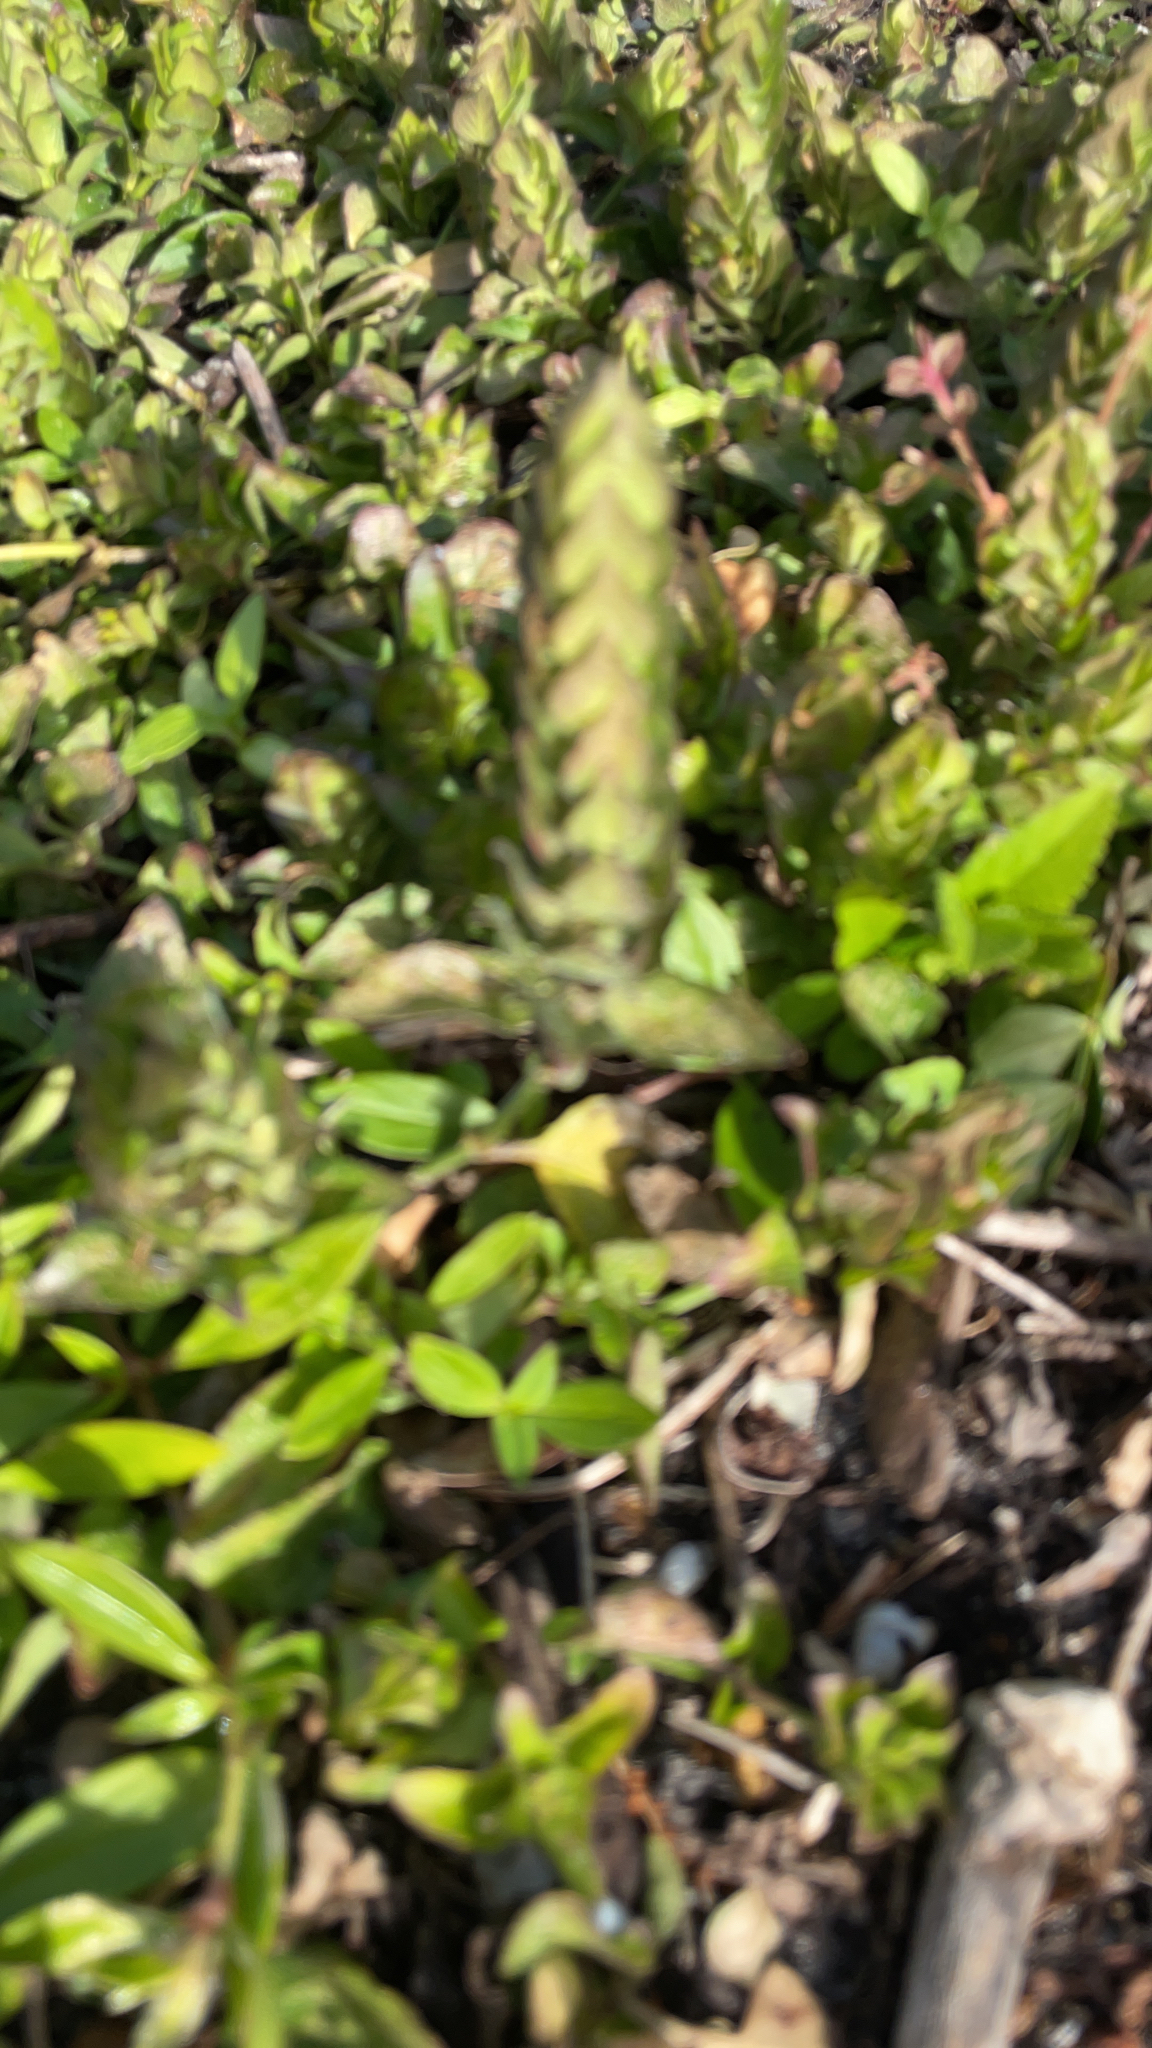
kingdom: Plantae
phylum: Tracheophyta
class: Magnoliopsida
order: Lamiales
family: Acanthaceae
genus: Ruellia
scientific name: Ruellia blechum
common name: Browne's blechum
